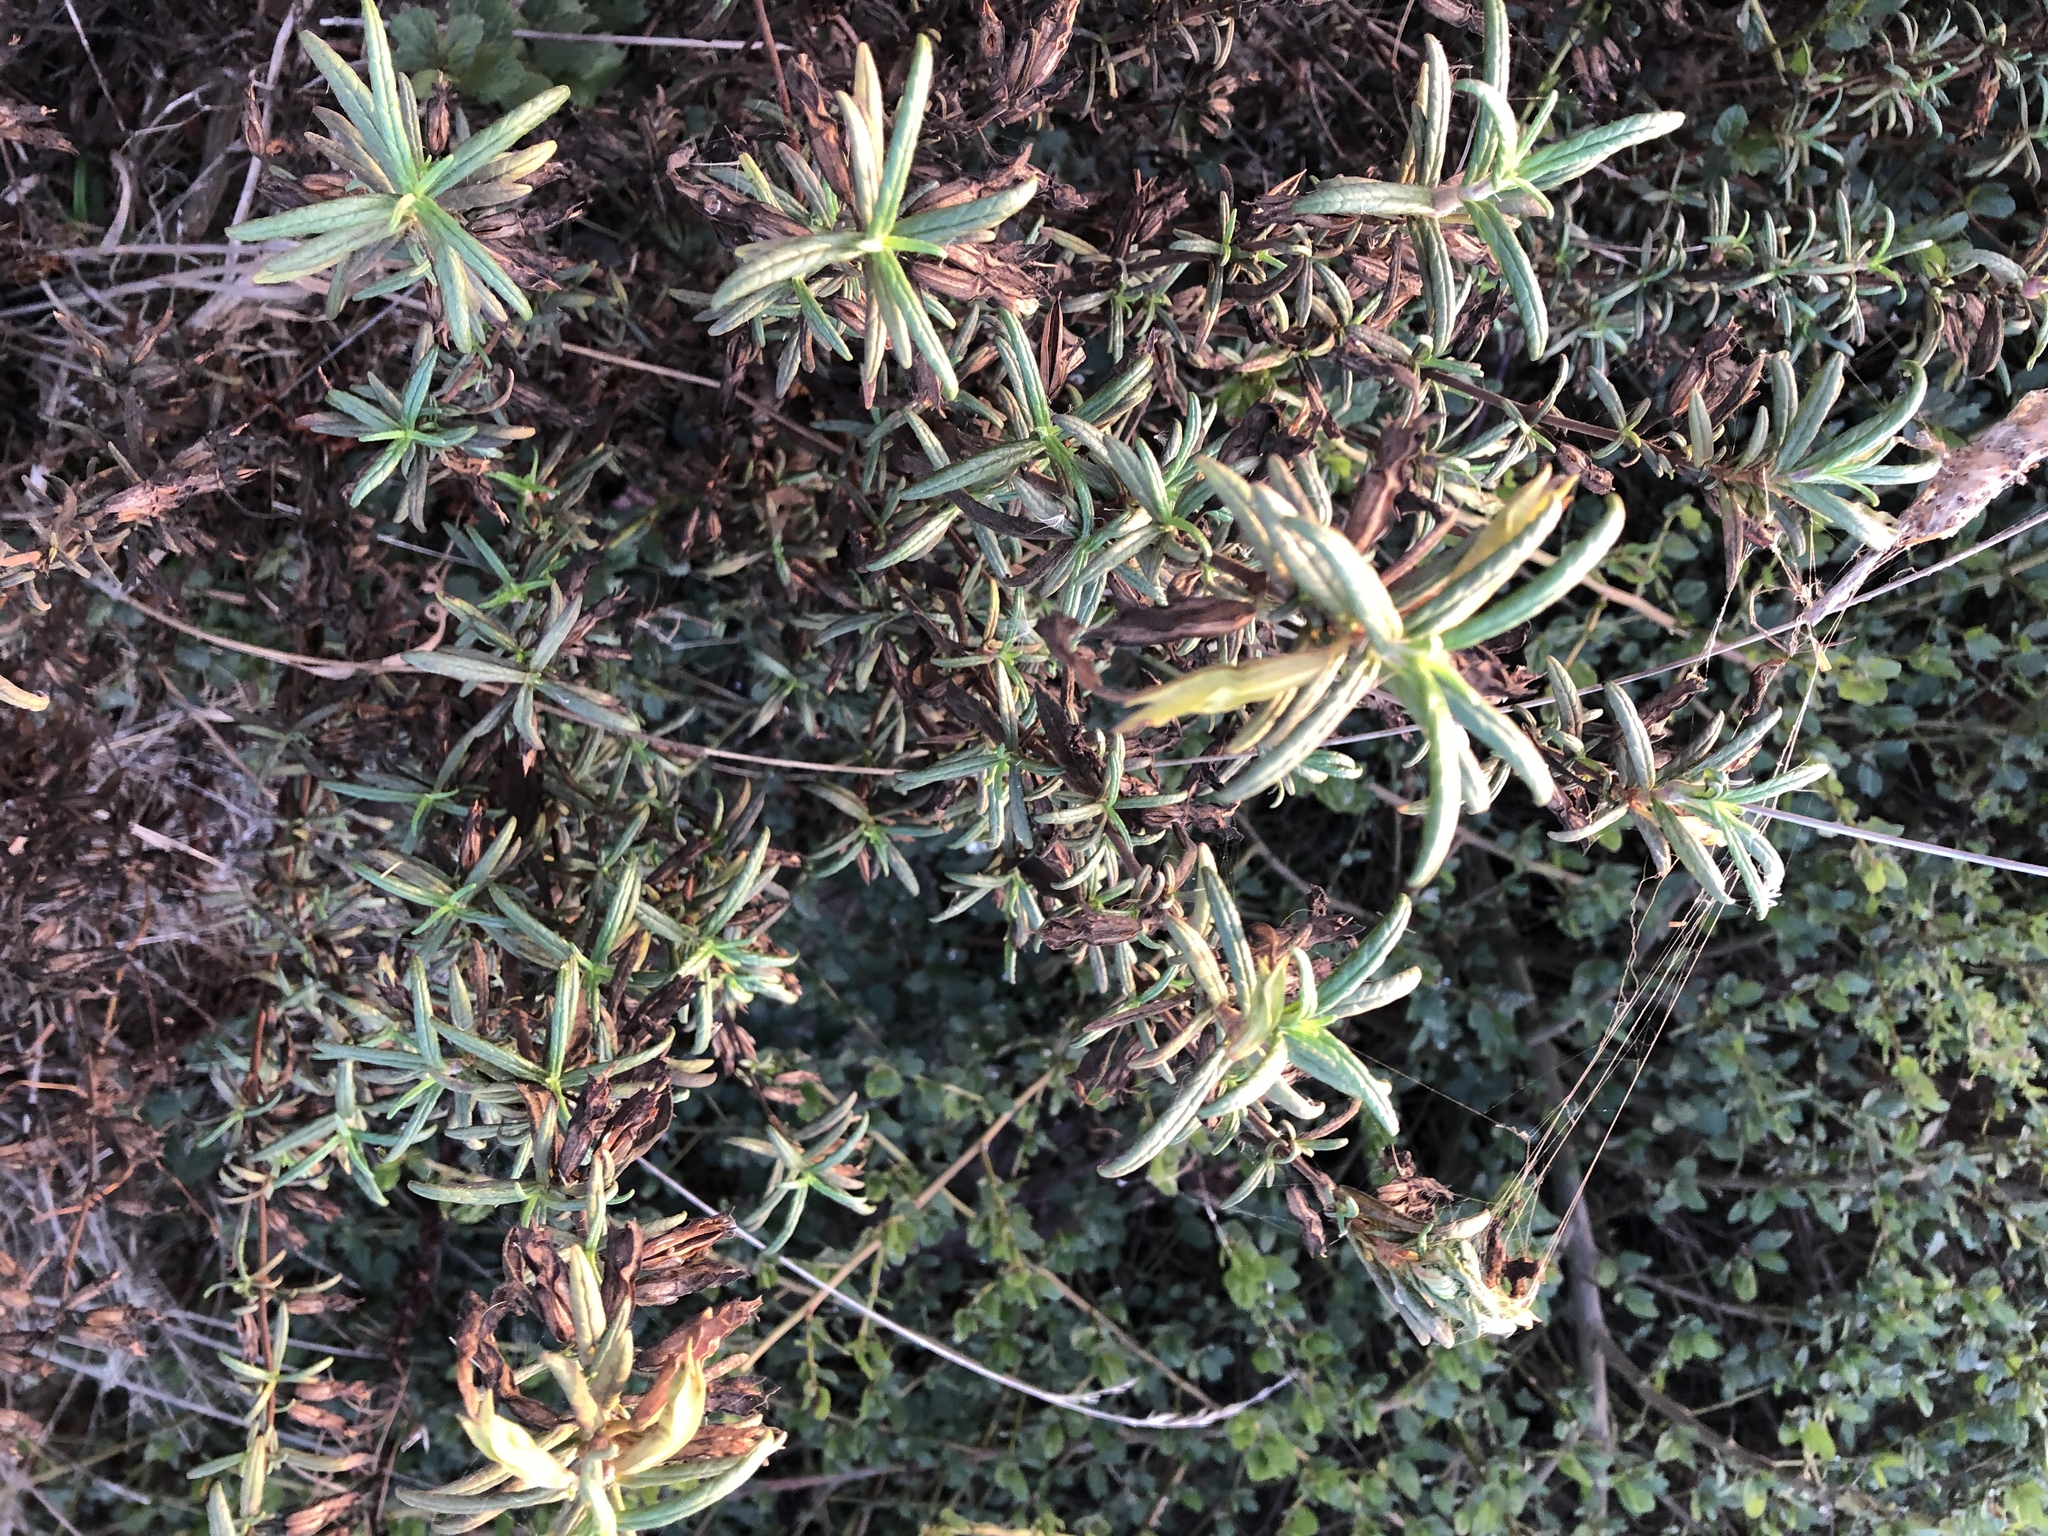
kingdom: Plantae
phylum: Tracheophyta
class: Magnoliopsida
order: Lamiales
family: Phrymaceae
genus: Diplacus
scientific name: Diplacus aurantiacus
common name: Bush monkey-flower
